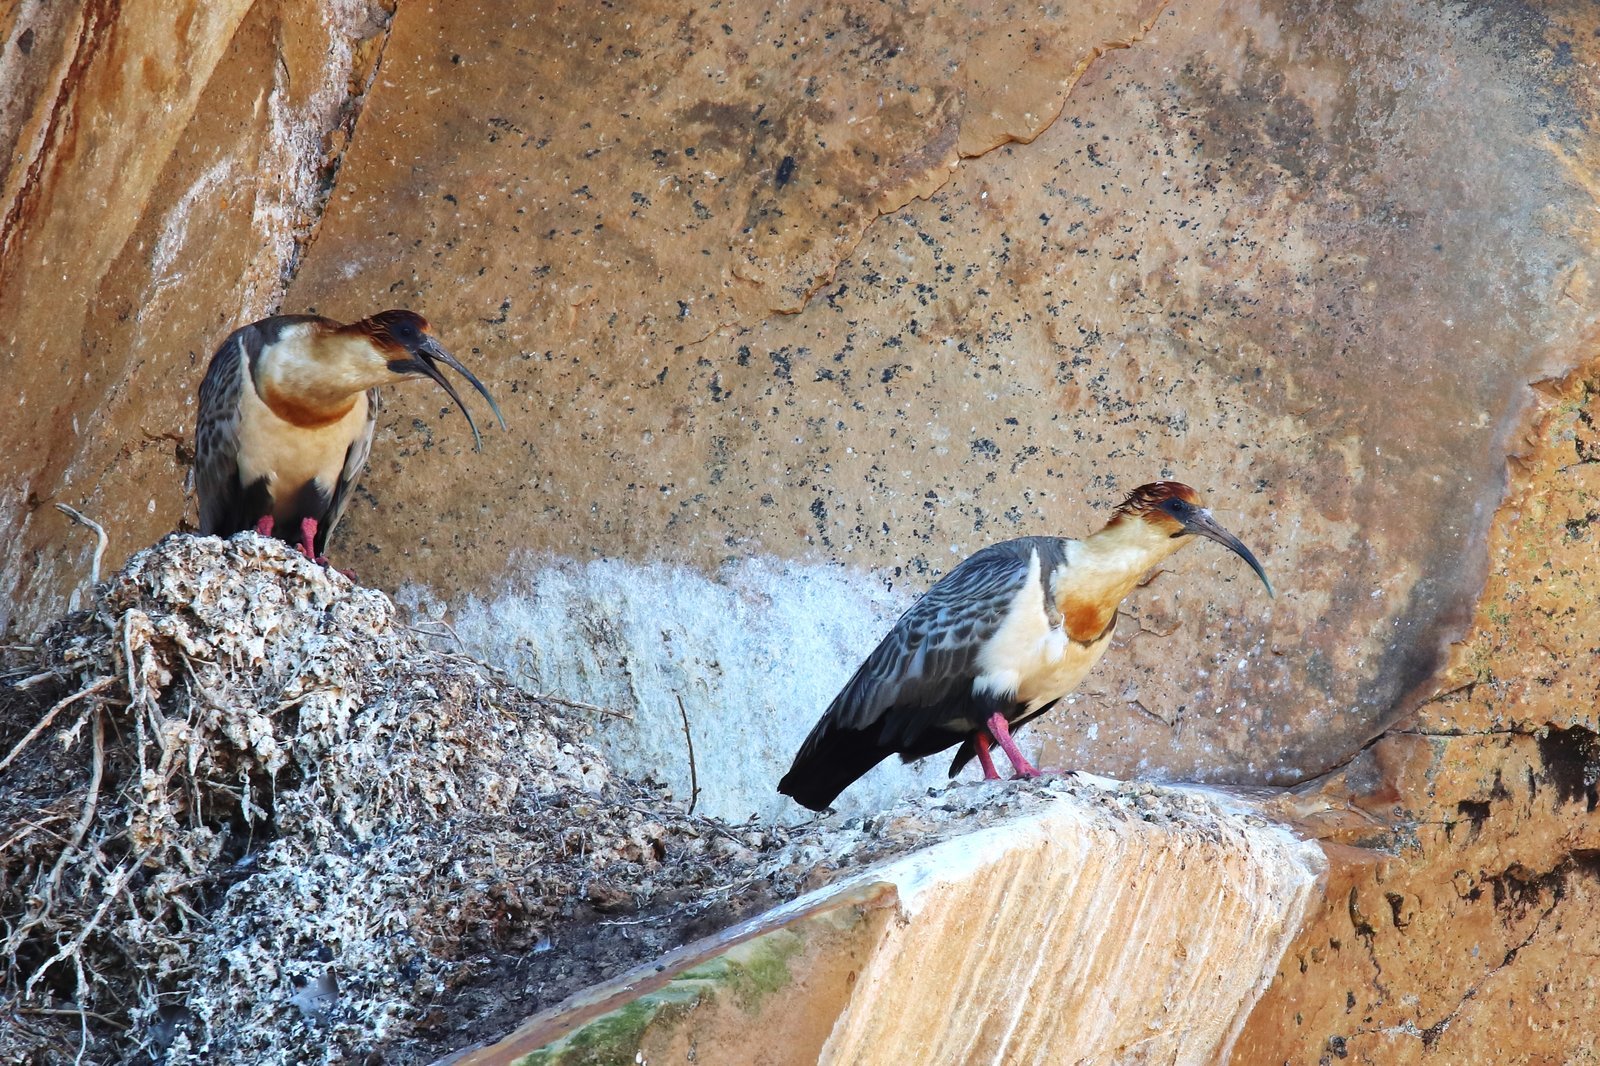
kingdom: Animalia
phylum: Chordata
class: Aves
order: Pelecaniformes
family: Threskiornithidae
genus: Theristicus
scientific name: Theristicus melanopis
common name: Black-faced ibis
